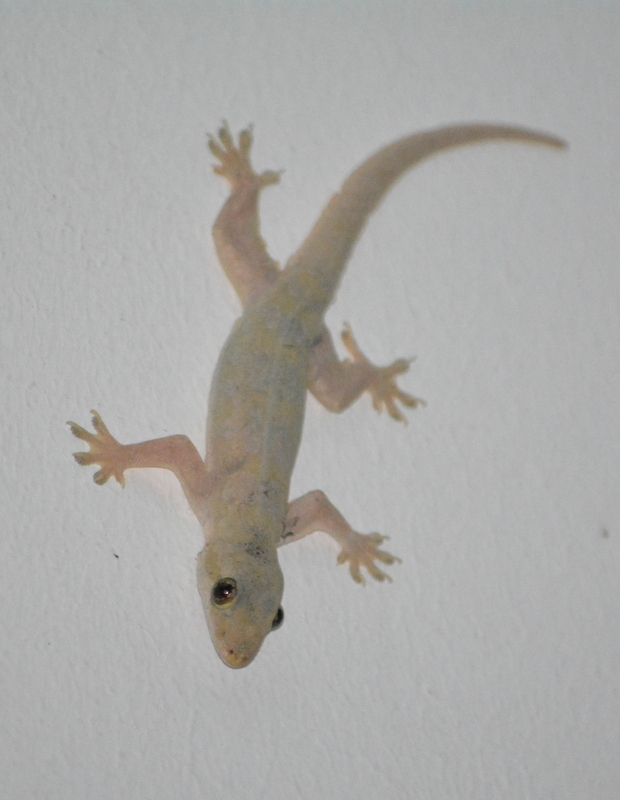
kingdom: Animalia
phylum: Chordata
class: Squamata
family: Gekkonidae
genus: Hemidactylus
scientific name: Hemidactylus platyurus
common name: Flat-tailed house gecko
